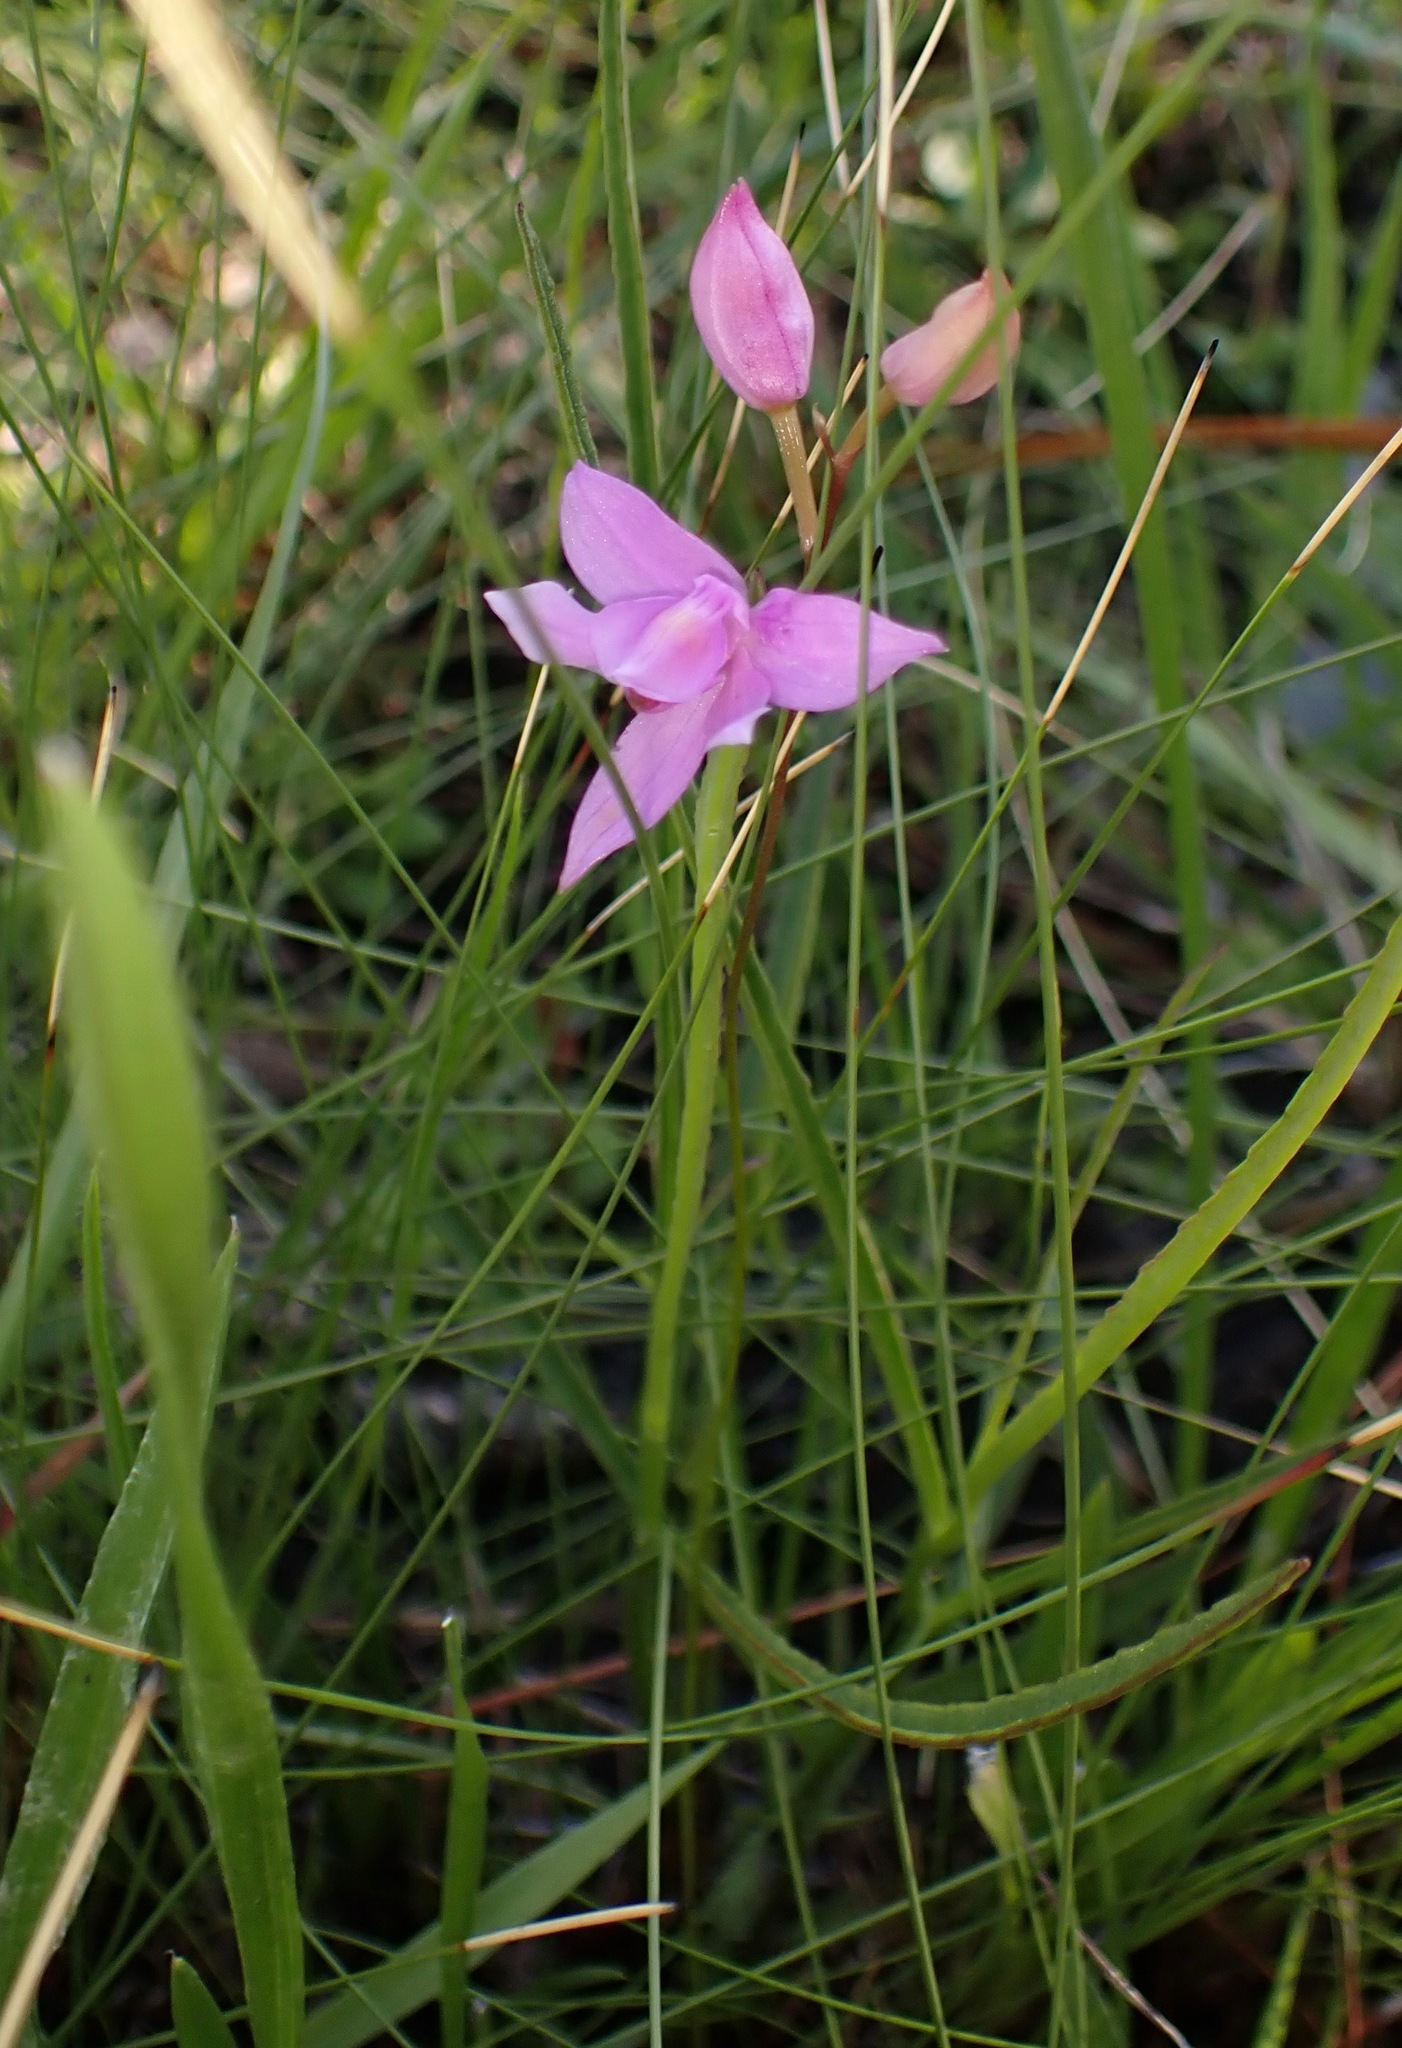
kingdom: Plantae
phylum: Tracheophyta
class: Liliopsida
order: Asparagales
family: Orchidaceae
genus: Calopogon
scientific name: Calopogon barbatus
